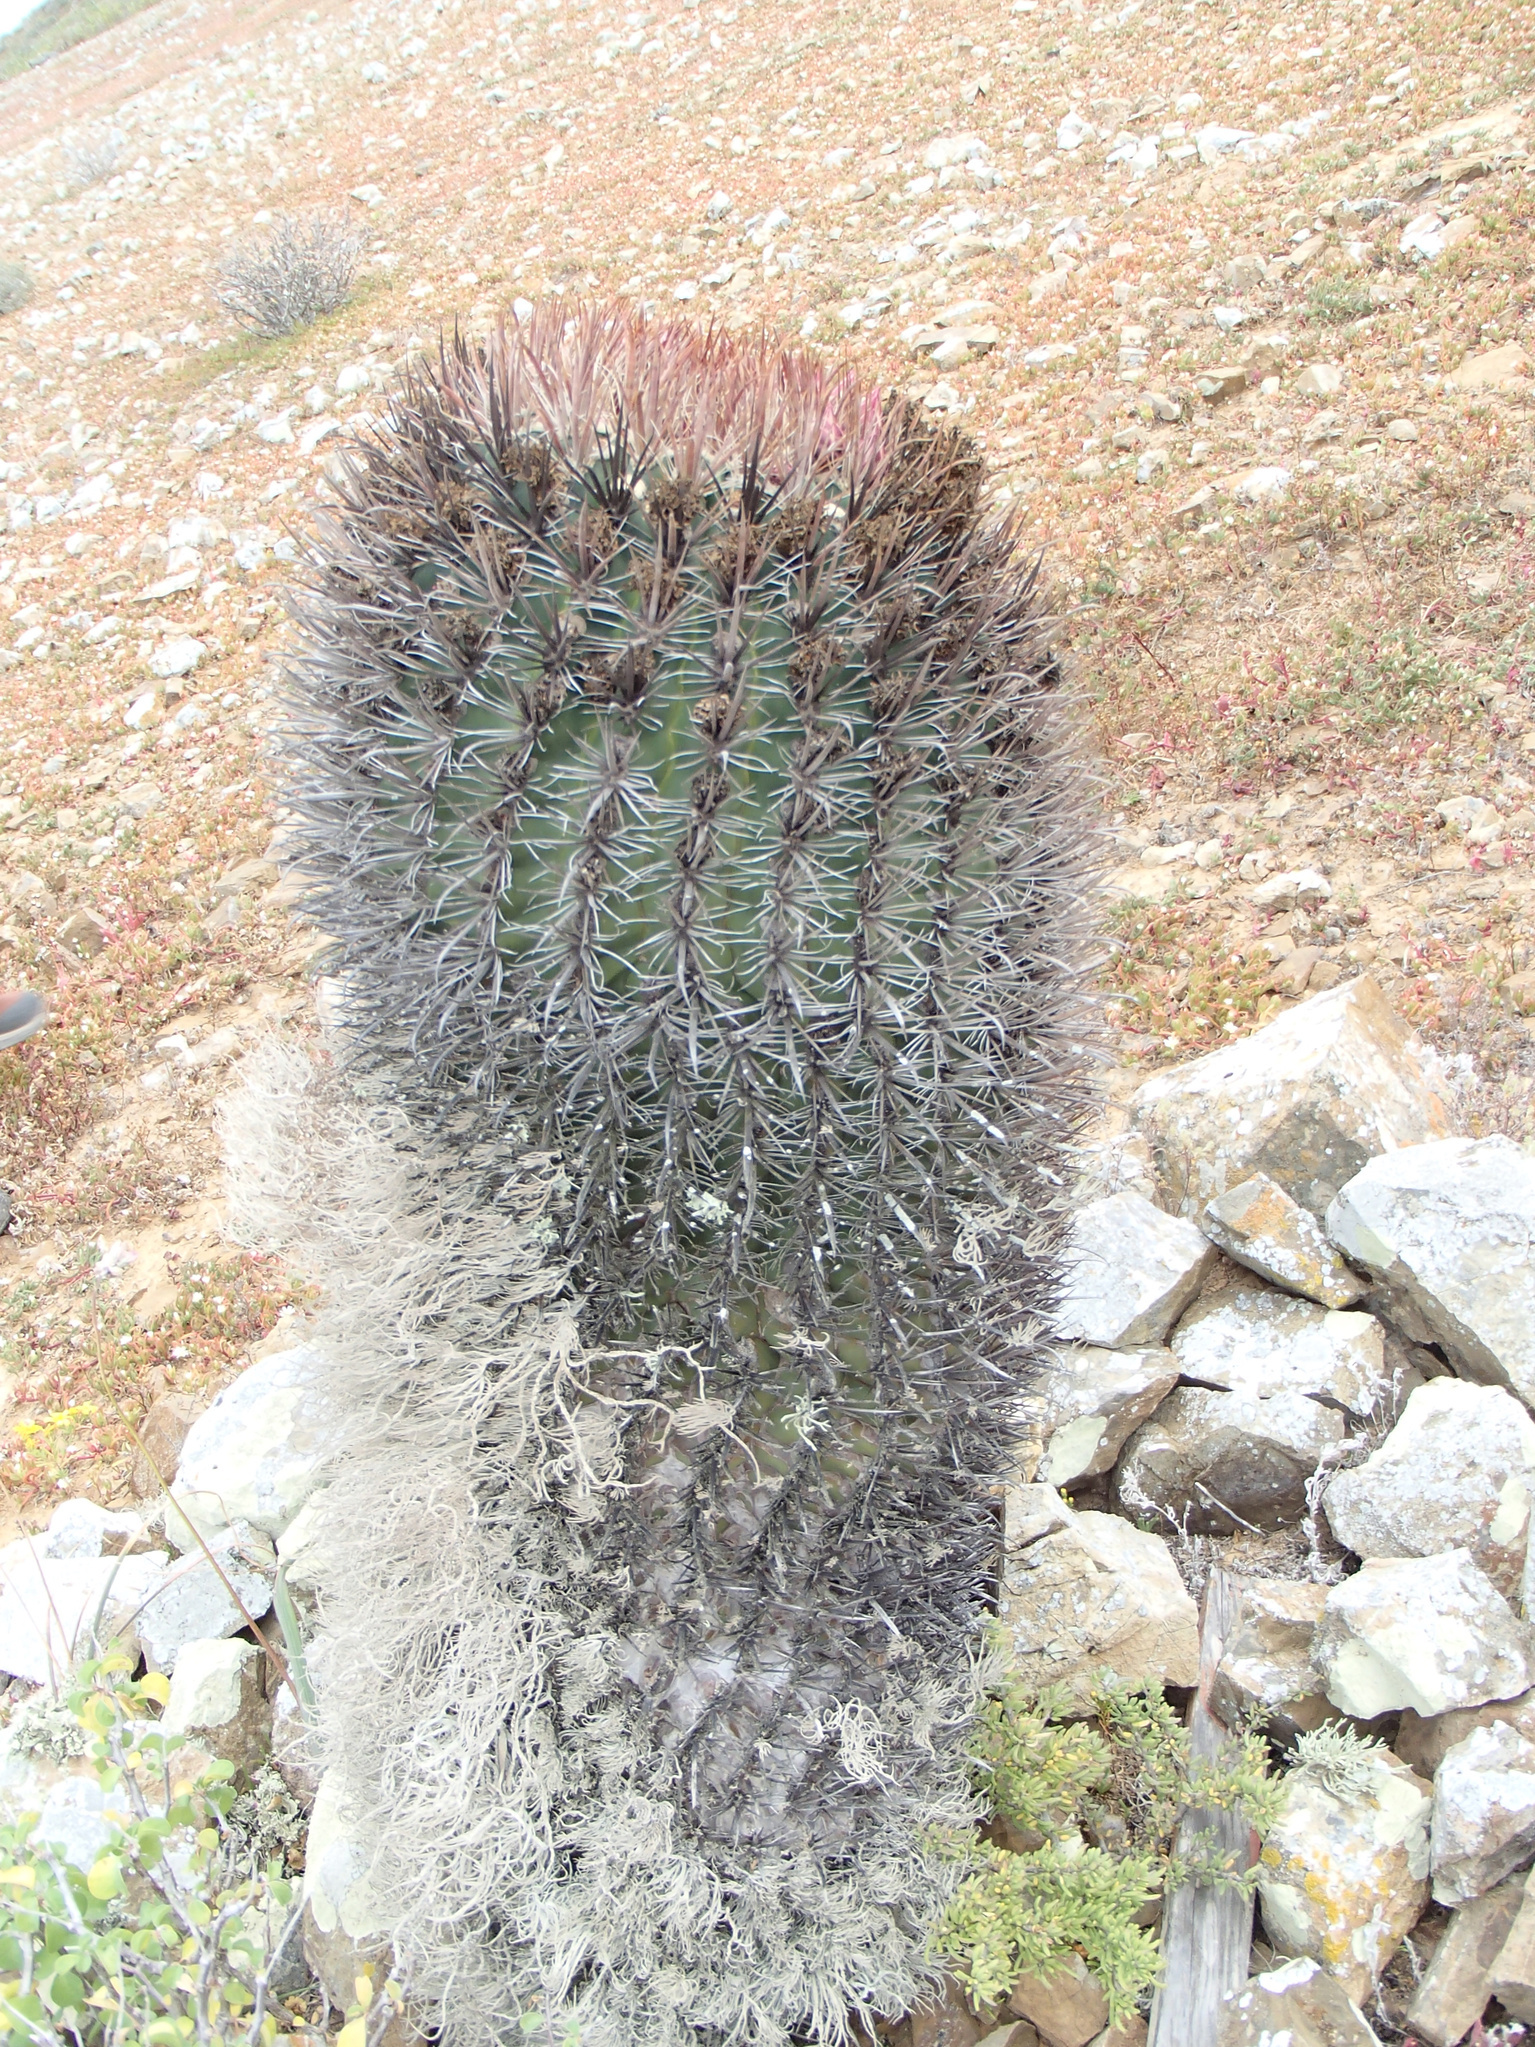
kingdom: Plantae
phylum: Tracheophyta
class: Magnoliopsida
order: Caryophyllales
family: Cactaceae
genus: Ferocactus
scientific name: Ferocactus chrysacanthus
